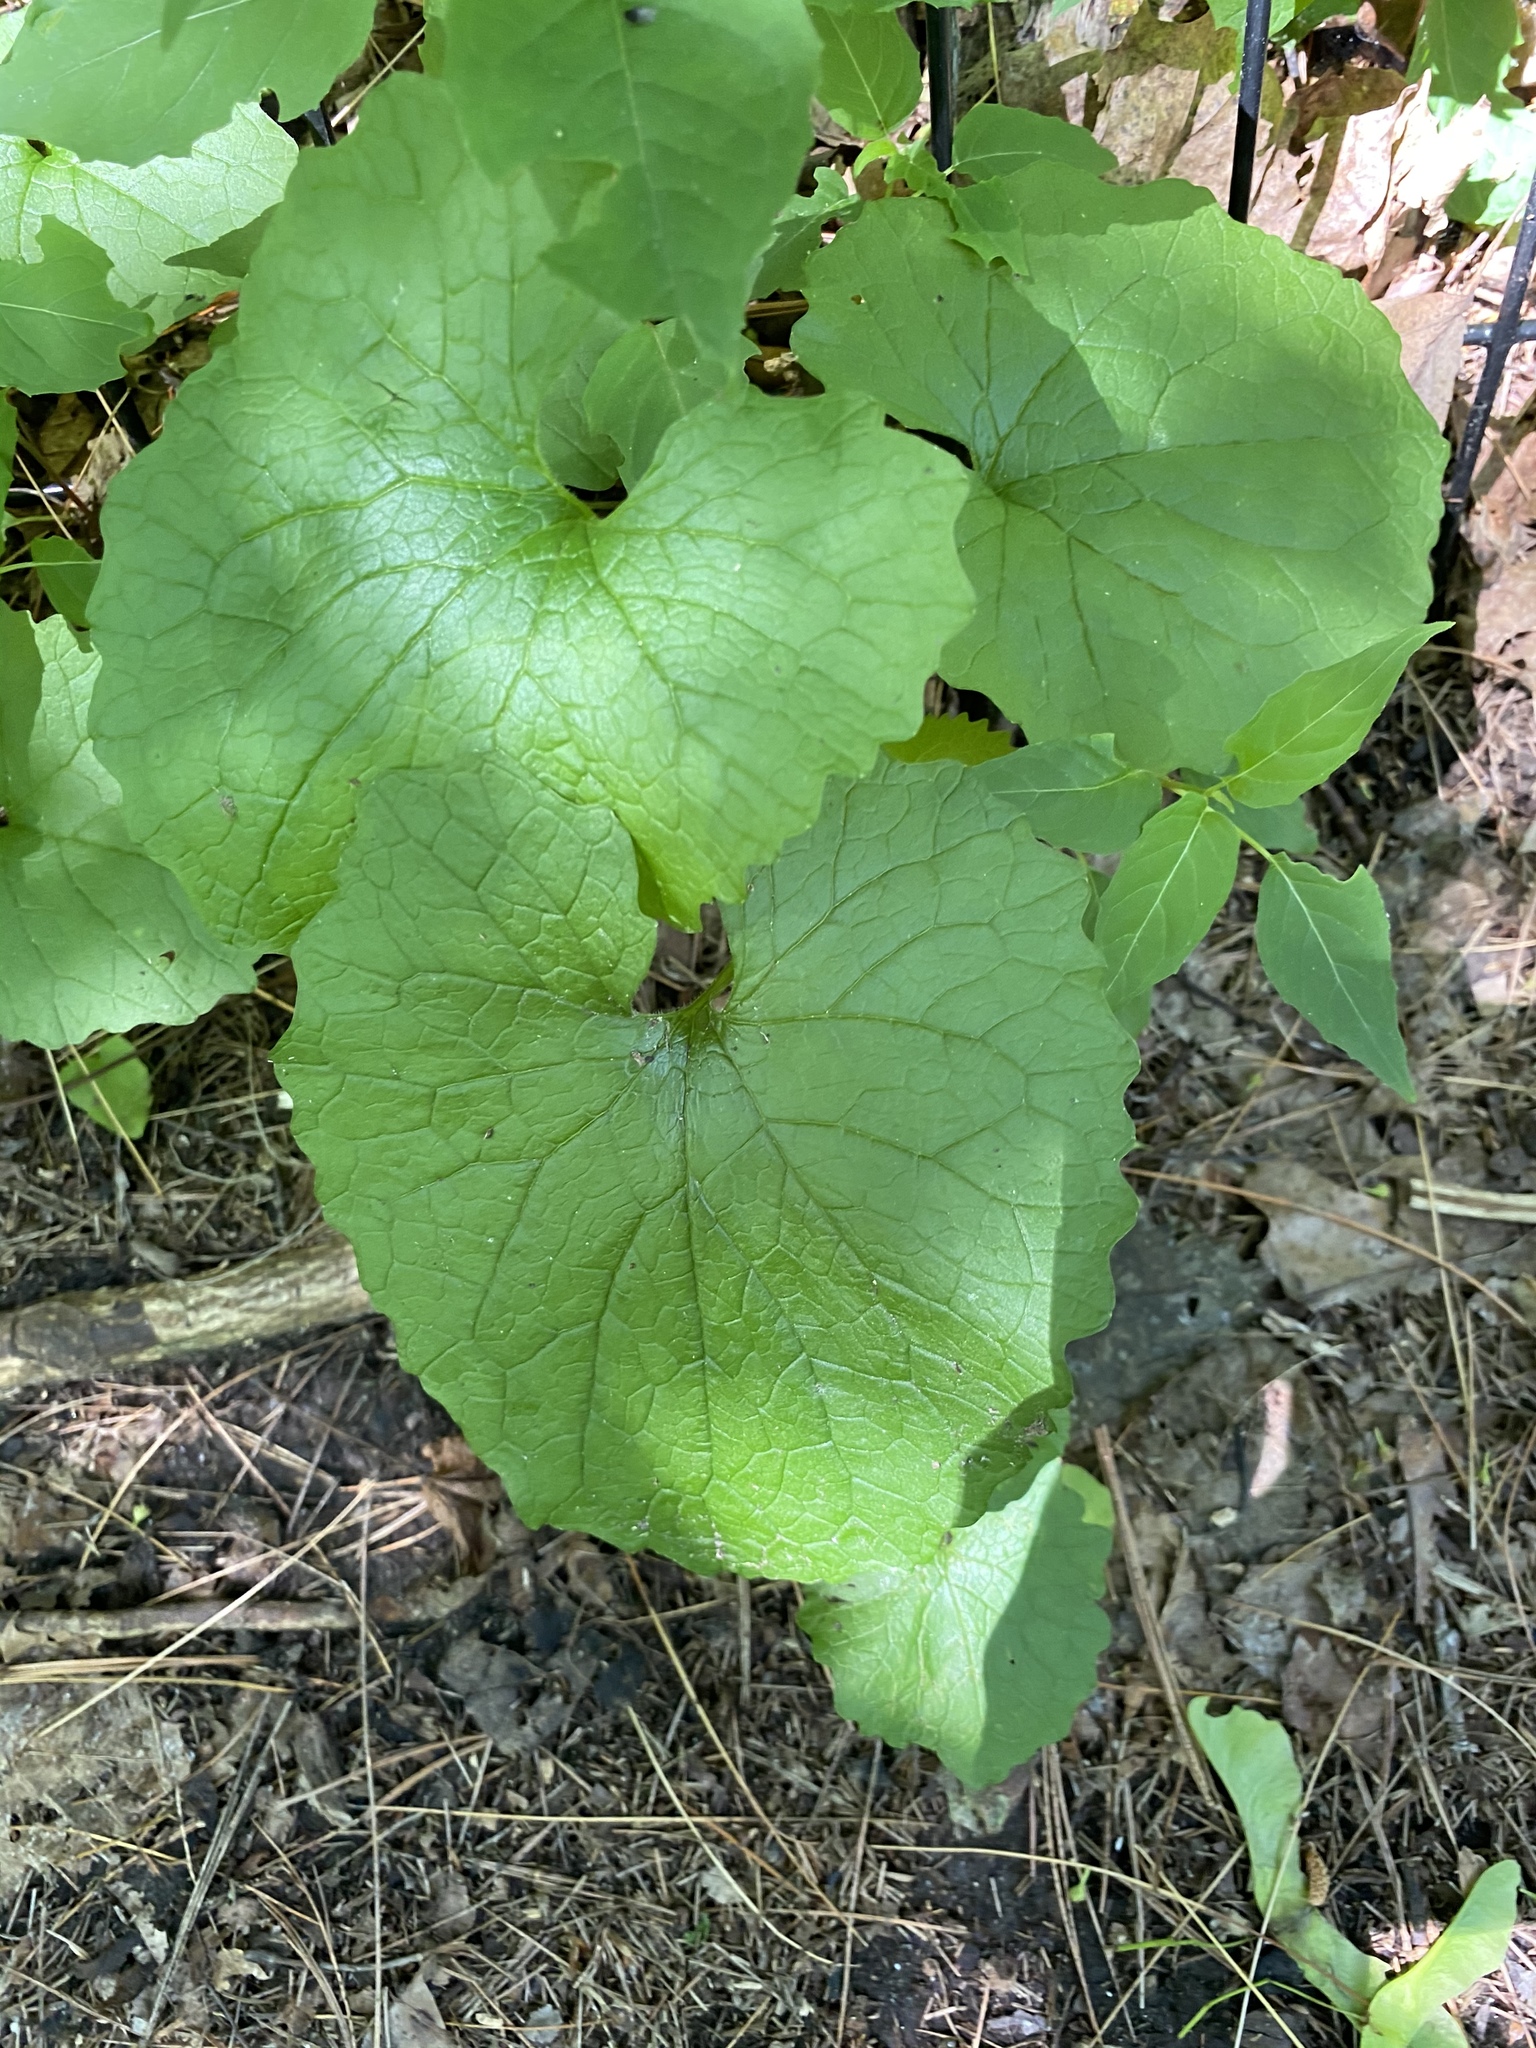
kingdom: Plantae
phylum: Tracheophyta
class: Magnoliopsida
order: Brassicales
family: Brassicaceae
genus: Alliaria
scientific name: Alliaria petiolata
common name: Garlic mustard
